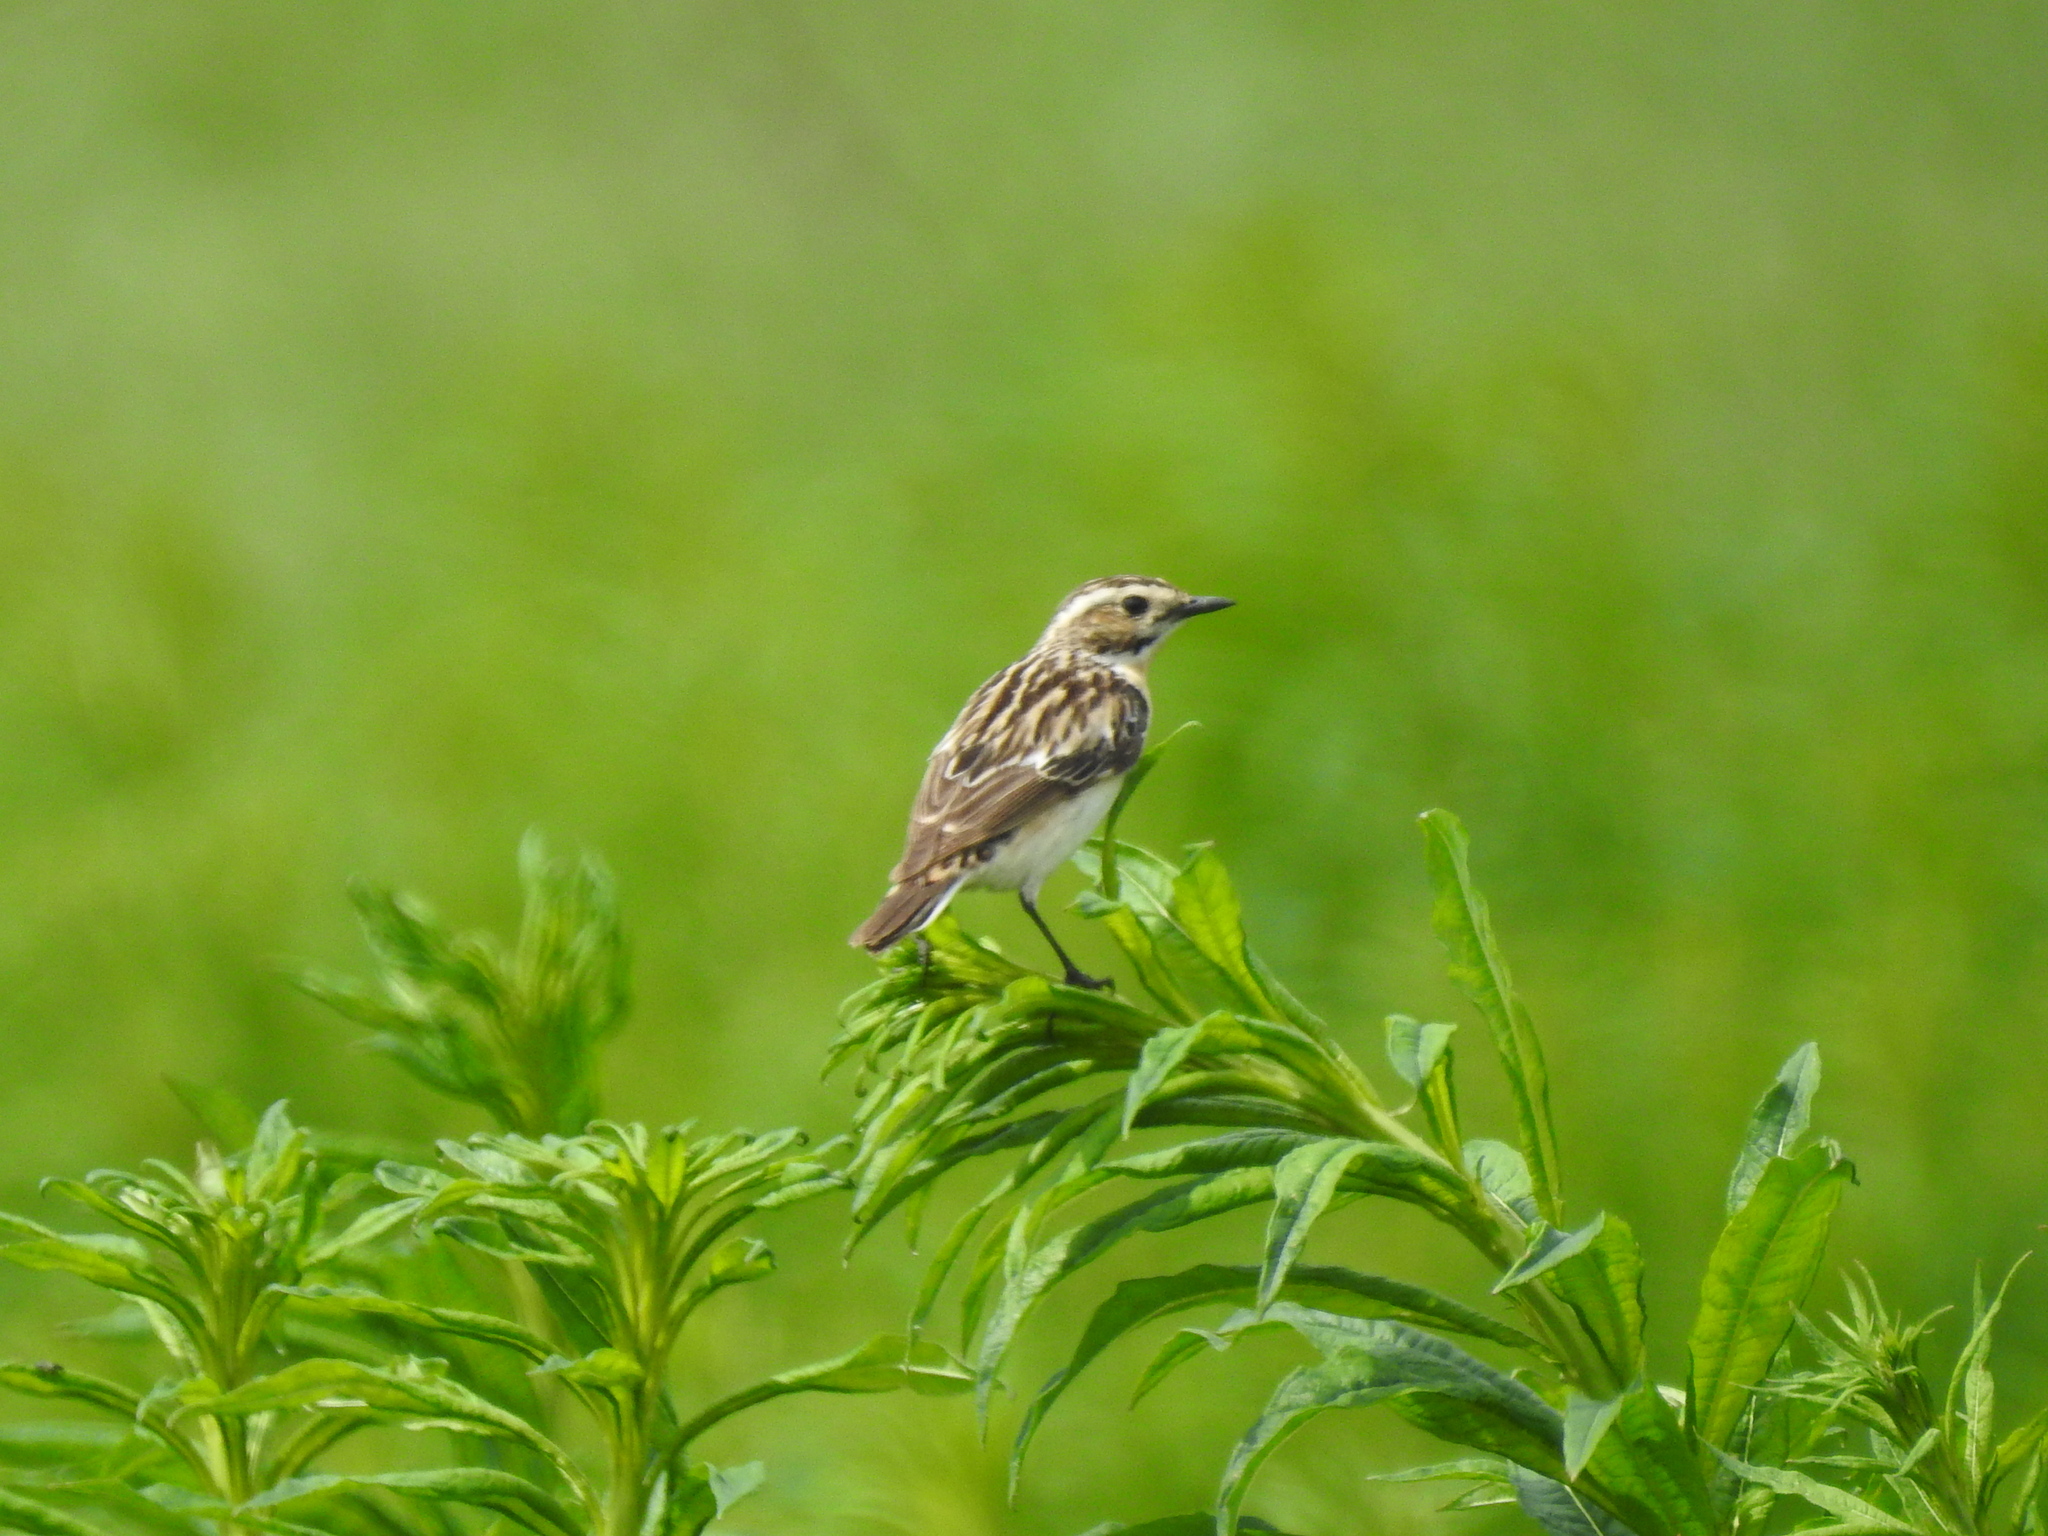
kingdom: Animalia
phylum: Chordata
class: Aves
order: Passeriformes
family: Muscicapidae
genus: Saxicola
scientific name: Saxicola rubetra
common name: Whinchat
